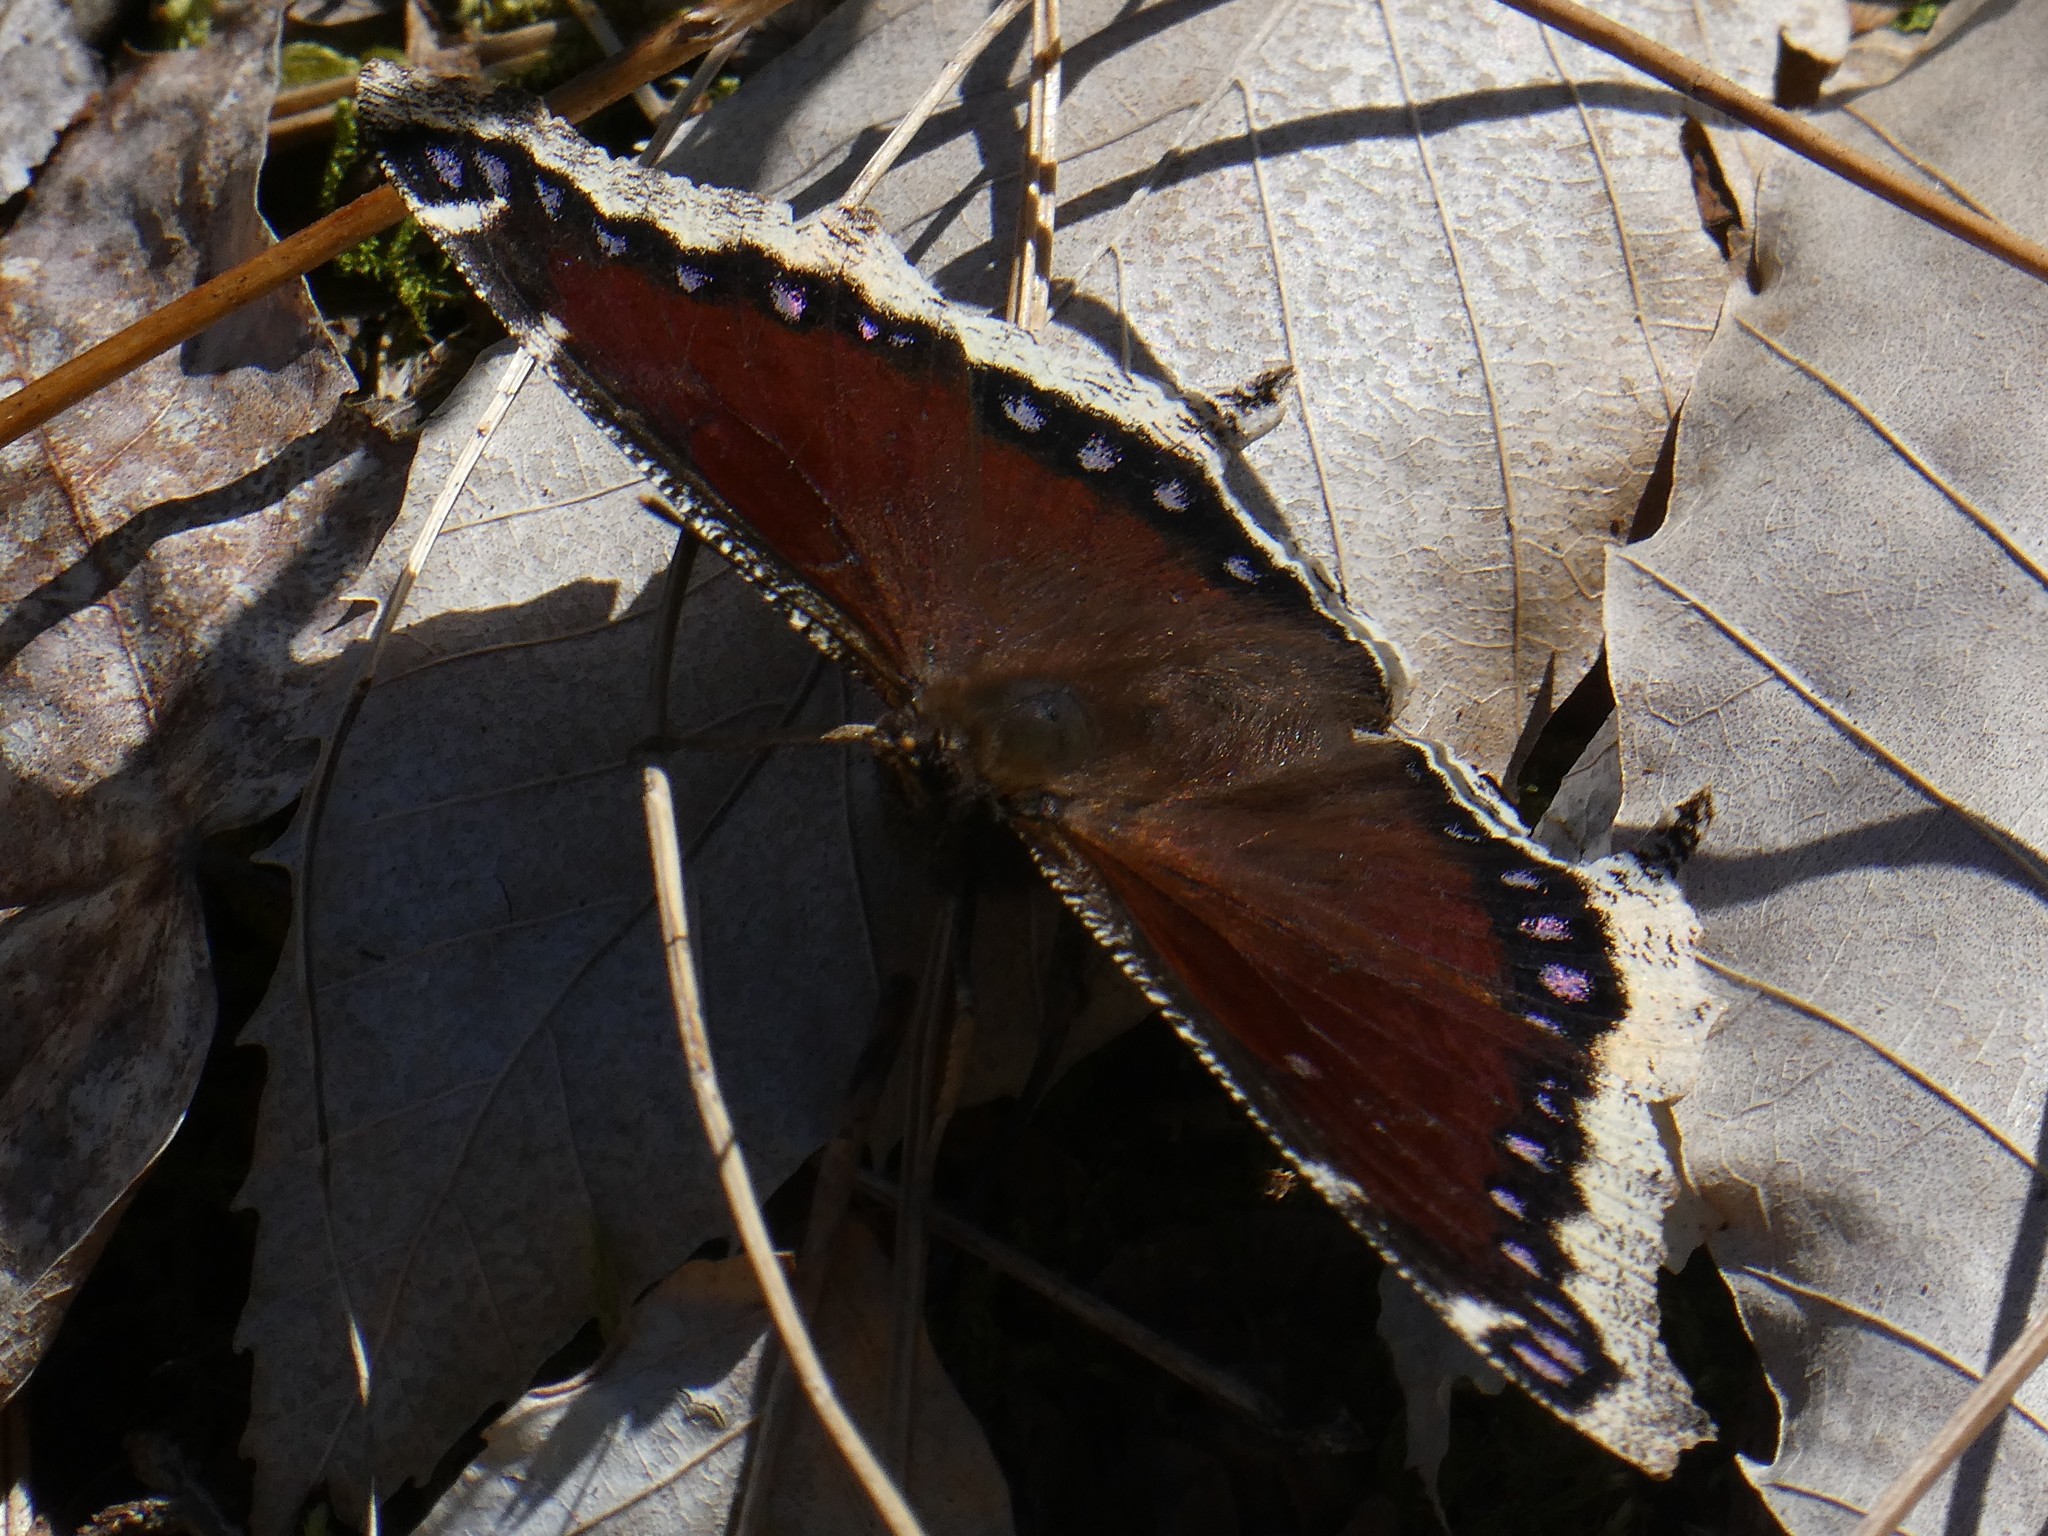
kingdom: Animalia
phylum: Arthropoda
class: Insecta
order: Lepidoptera
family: Nymphalidae
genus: Nymphalis
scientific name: Nymphalis antiopa
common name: Camberwell beauty
